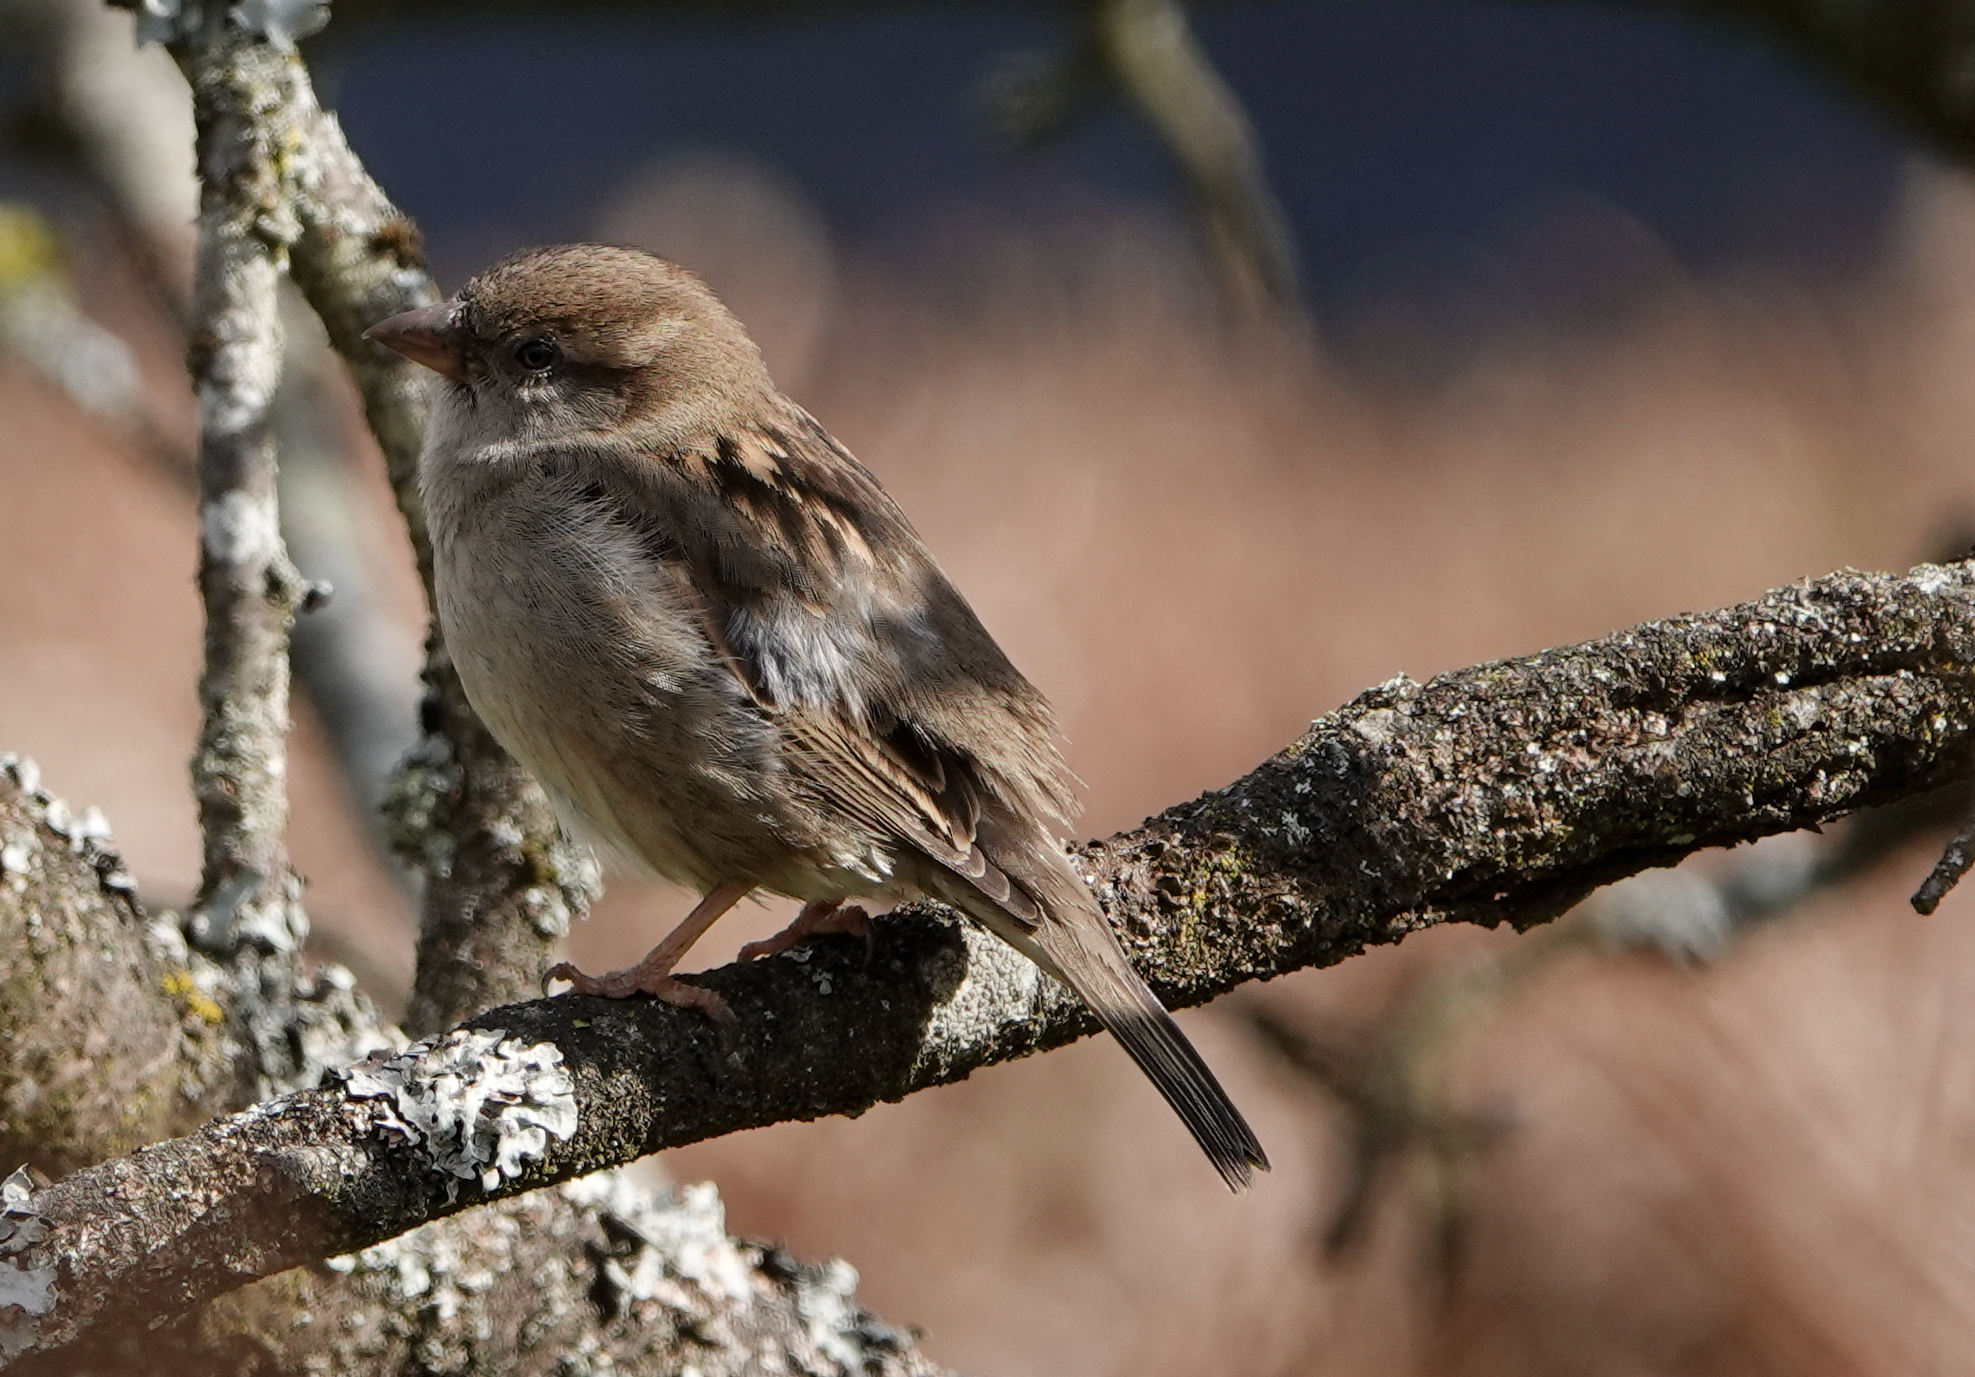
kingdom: Animalia
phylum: Chordata
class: Aves
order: Passeriformes
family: Passeridae
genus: Passer
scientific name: Passer domesticus
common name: House sparrow
